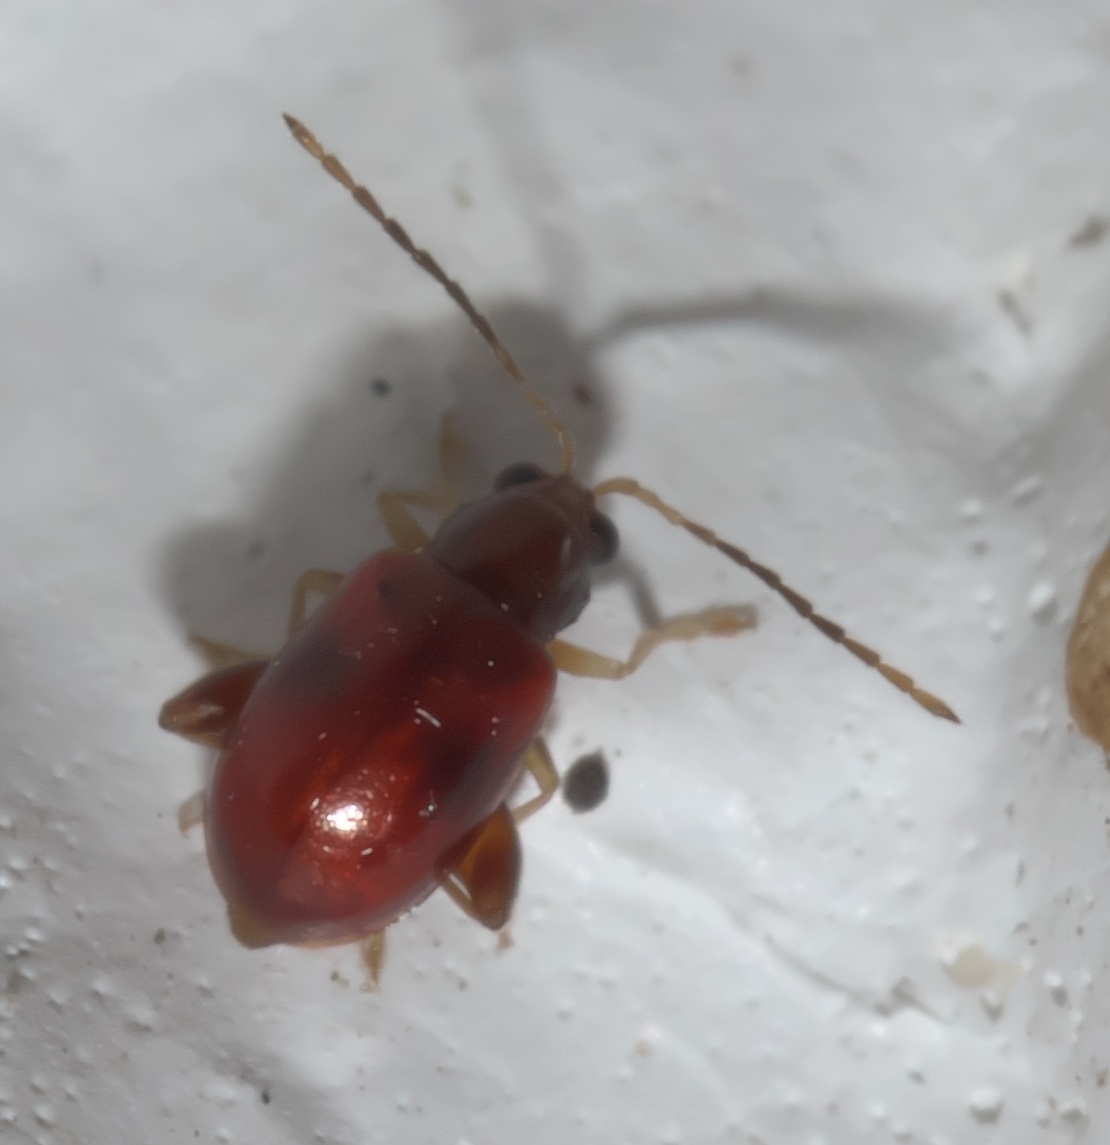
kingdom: Animalia
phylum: Arthropoda
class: Insecta
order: Coleoptera
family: Chrysomelidae
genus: Longitarsus
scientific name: Longitarsus varicornis
